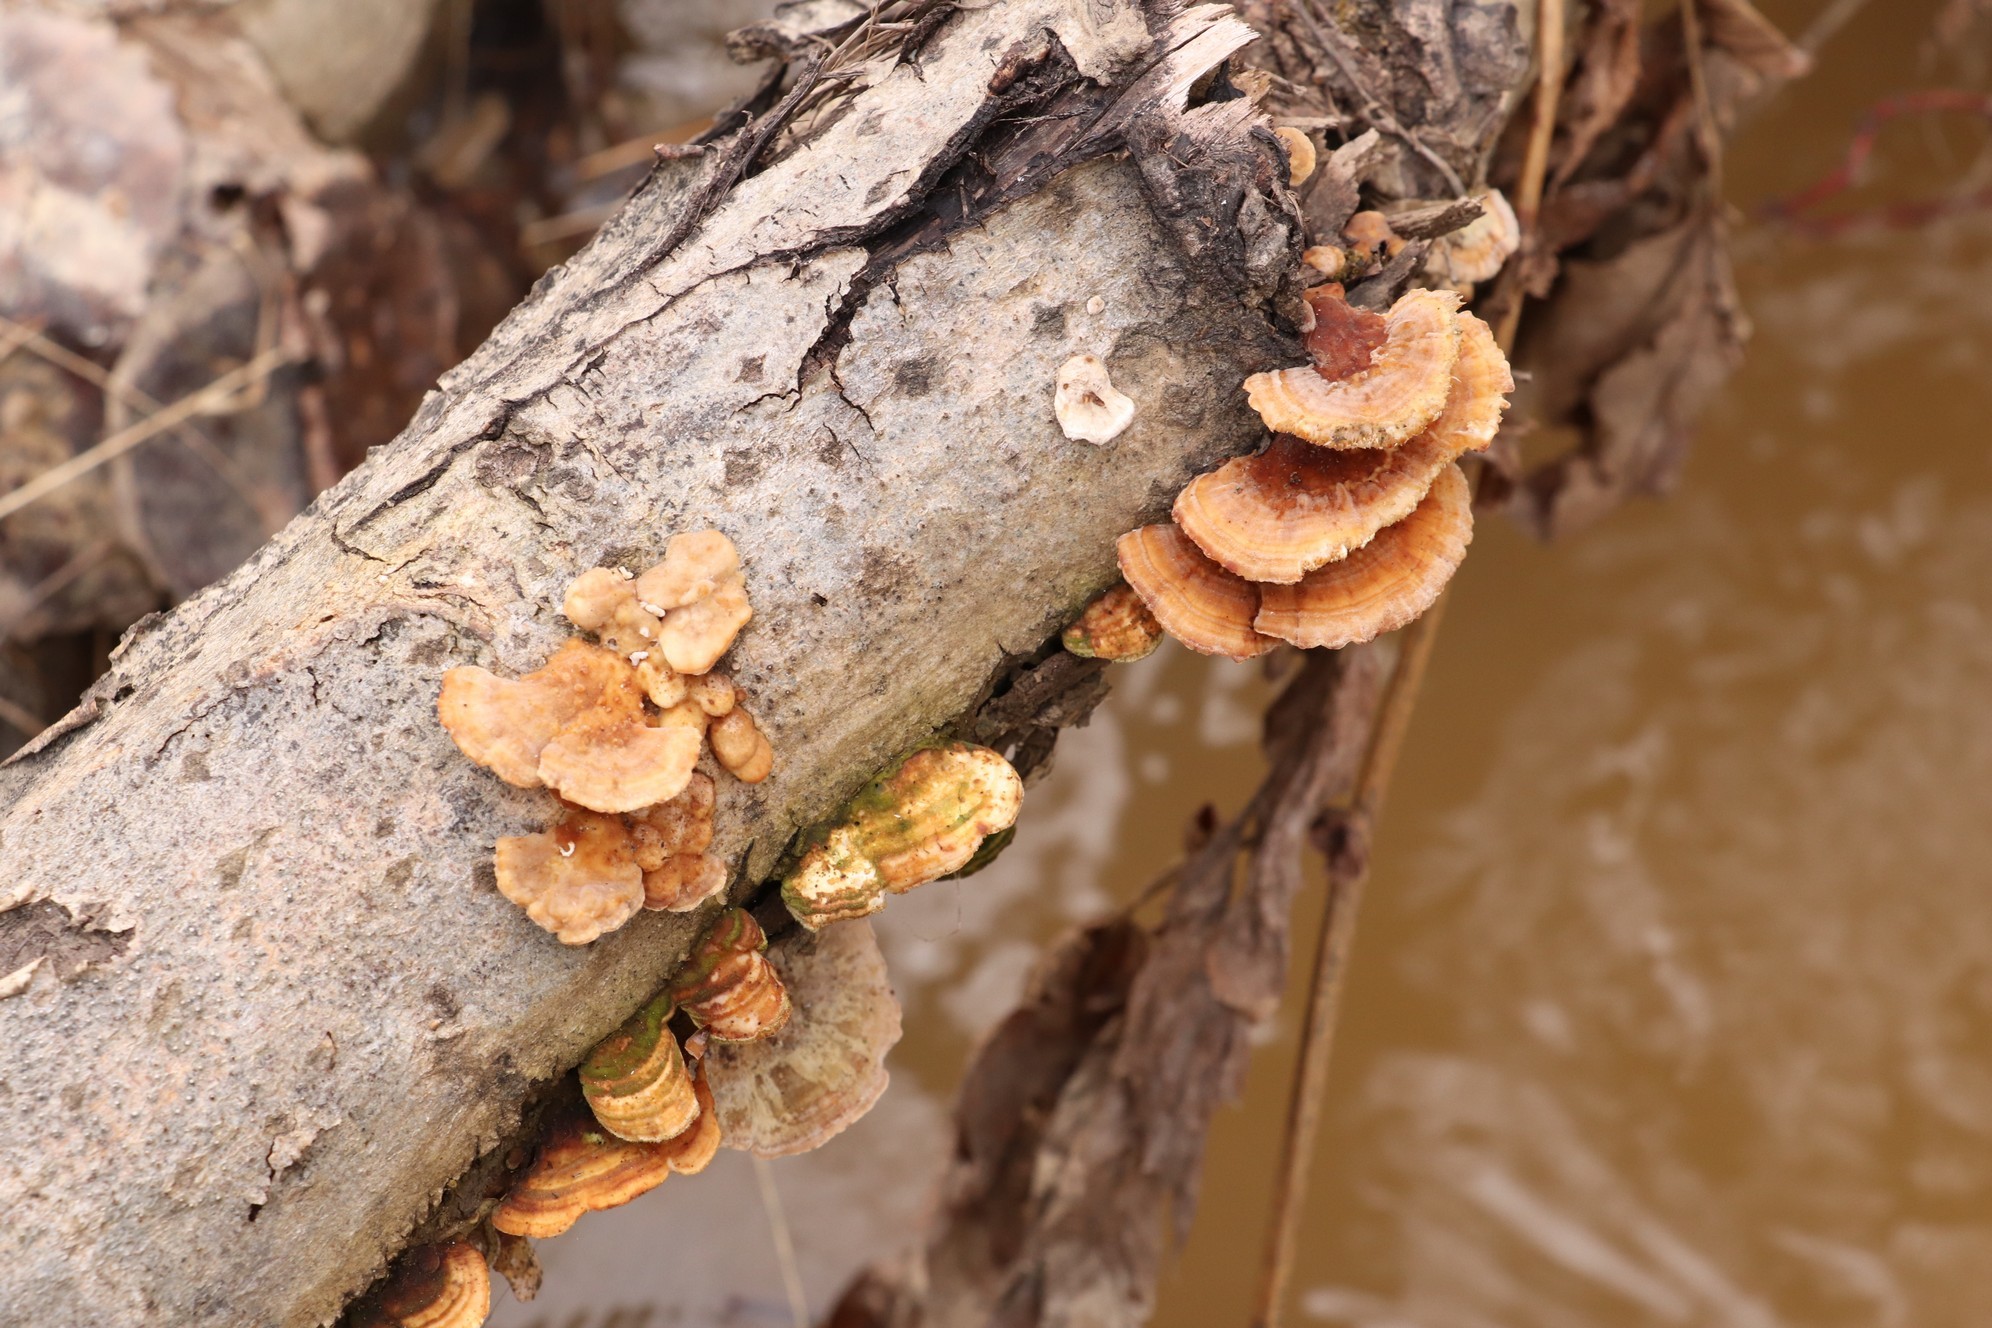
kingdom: Fungi
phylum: Basidiomycota
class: Agaricomycetes
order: Polyporales
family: Polyporaceae
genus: Trametes
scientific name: Trametes ochracea
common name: Ochre bracket
